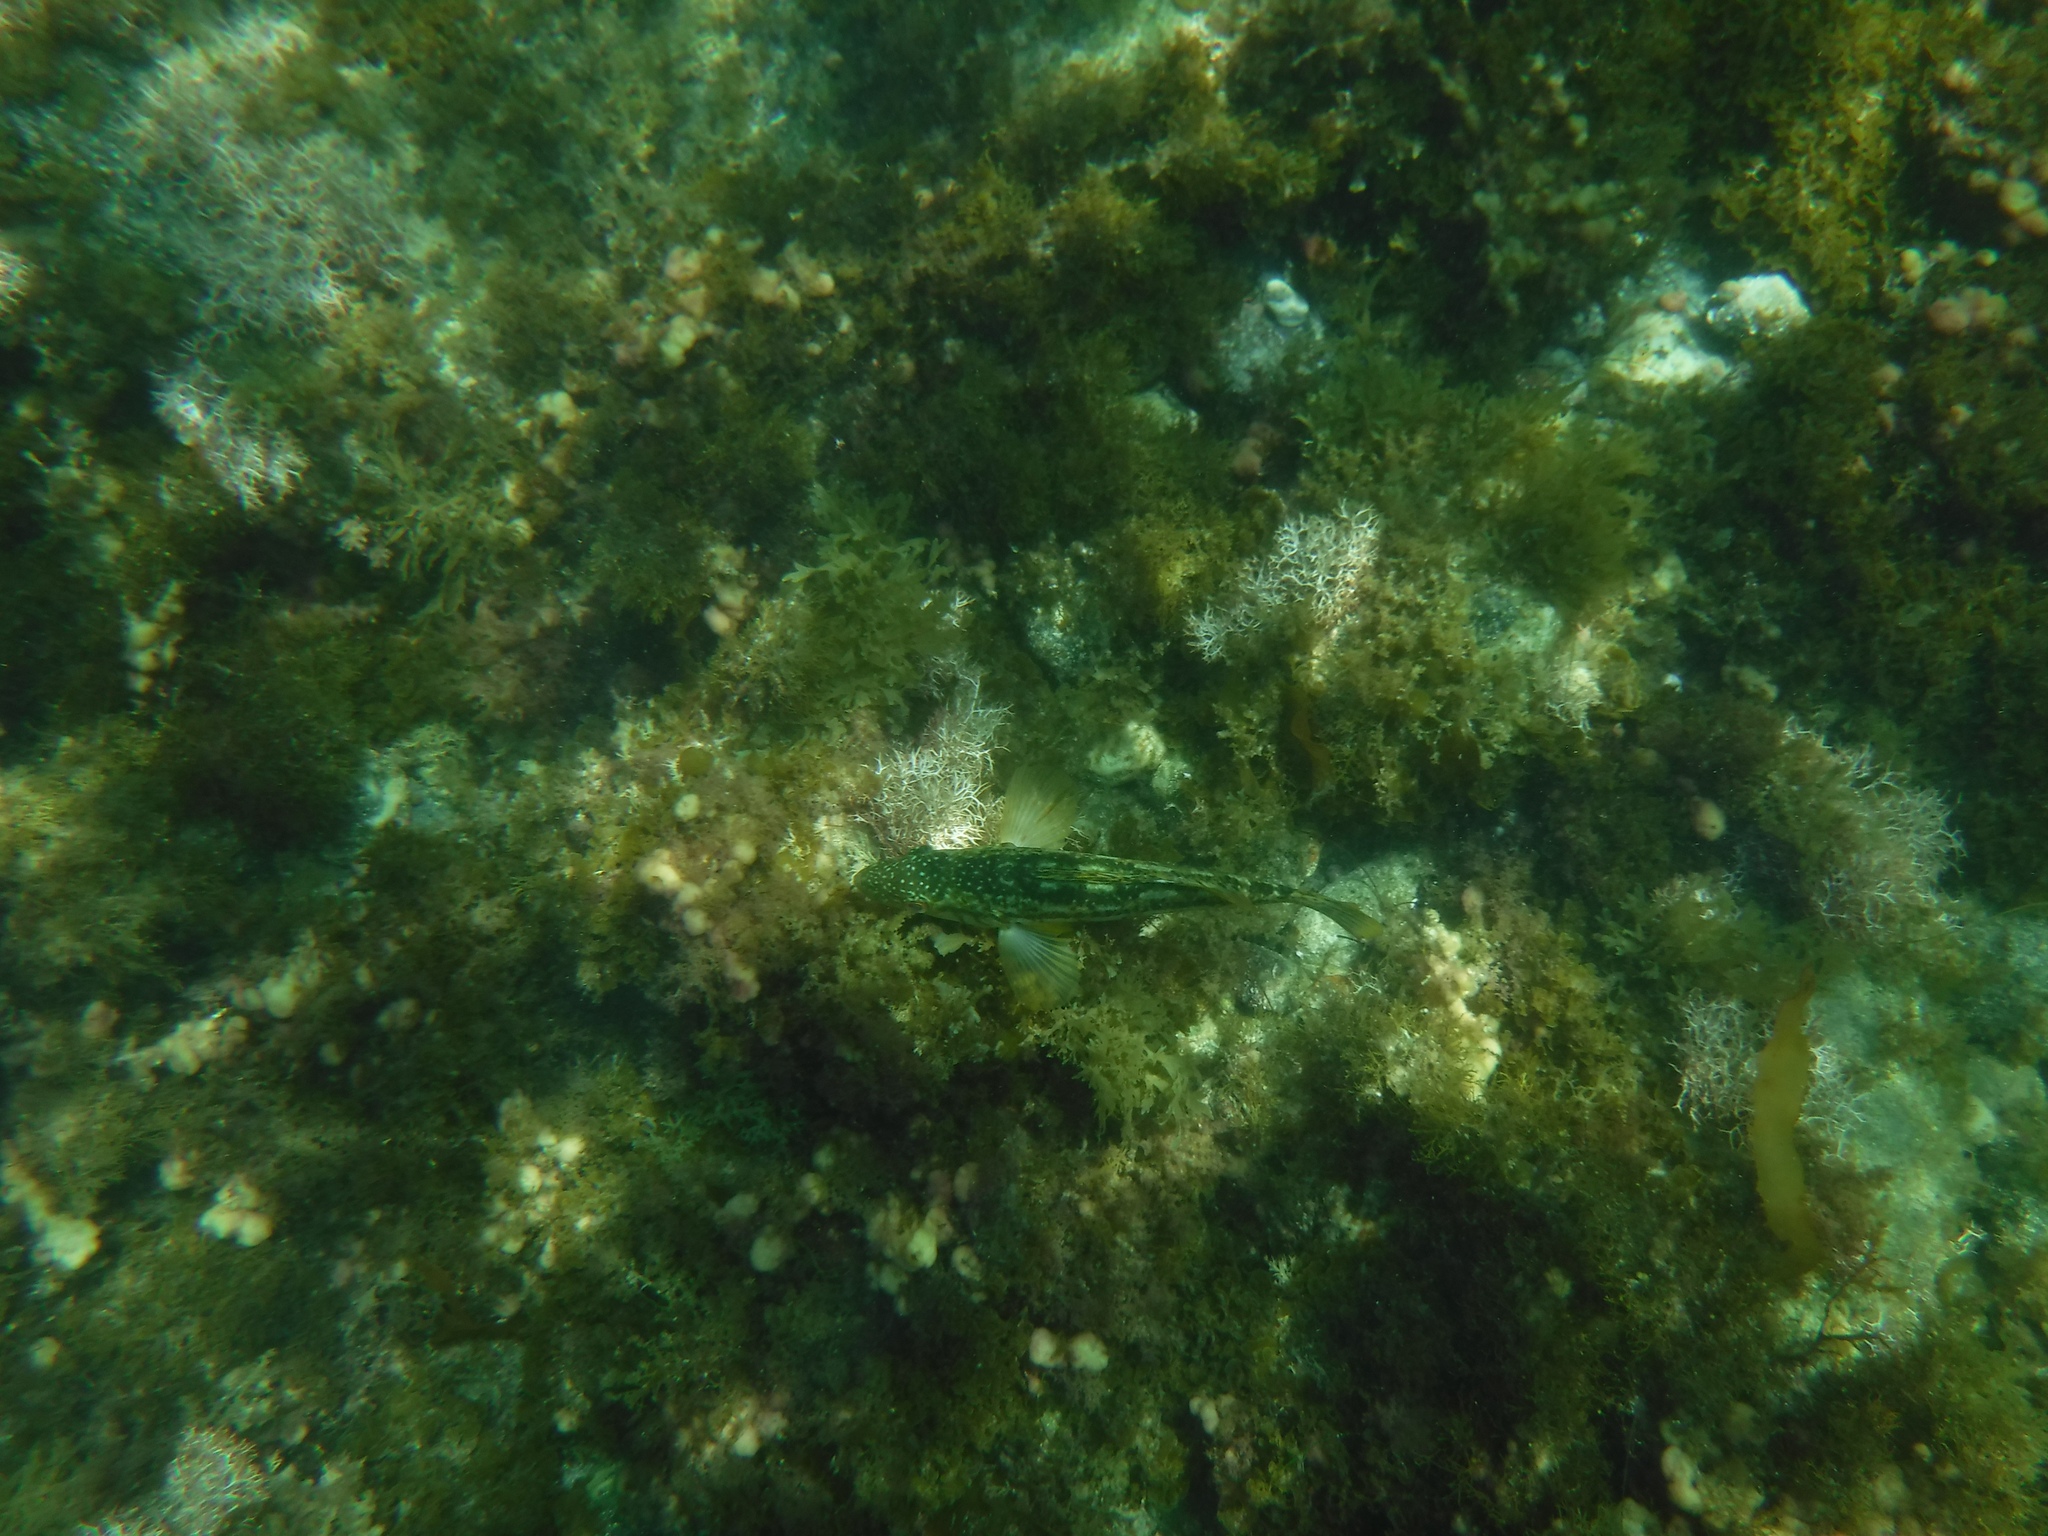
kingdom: Animalia
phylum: Chordata
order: Perciformes
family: Serranidae
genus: Paralabrax
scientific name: Paralabrax clathratus
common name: Kelp bass
